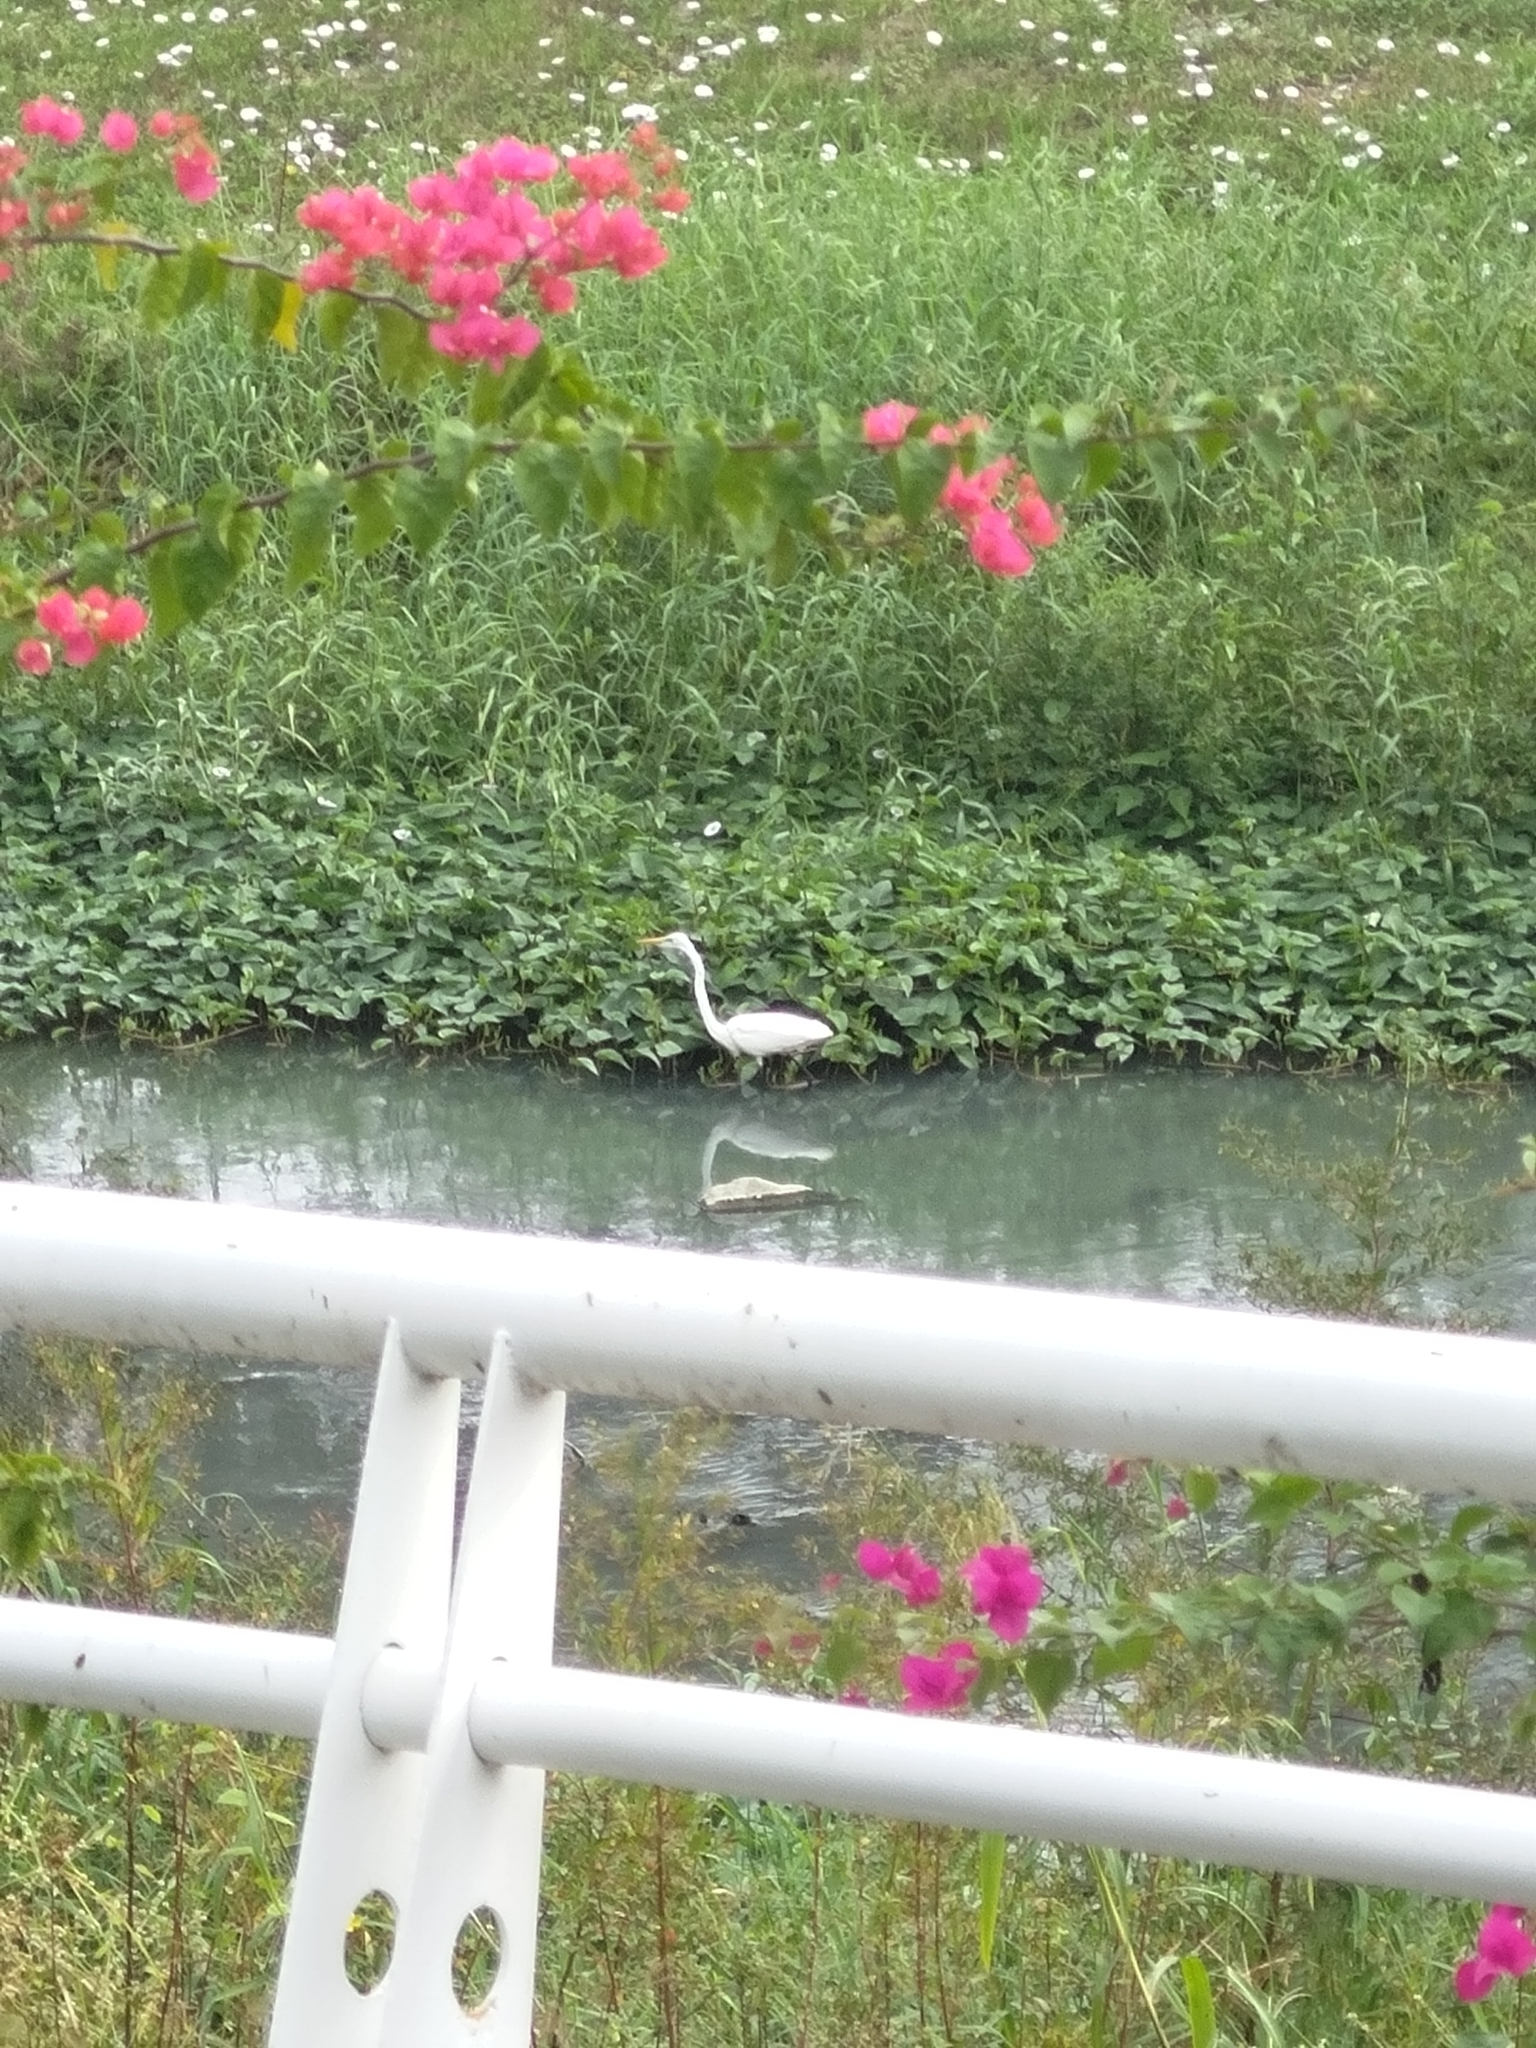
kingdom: Animalia
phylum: Chordata
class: Aves
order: Pelecaniformes
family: Ardeidae
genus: Ardea
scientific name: Ardea alba
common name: Great egret
